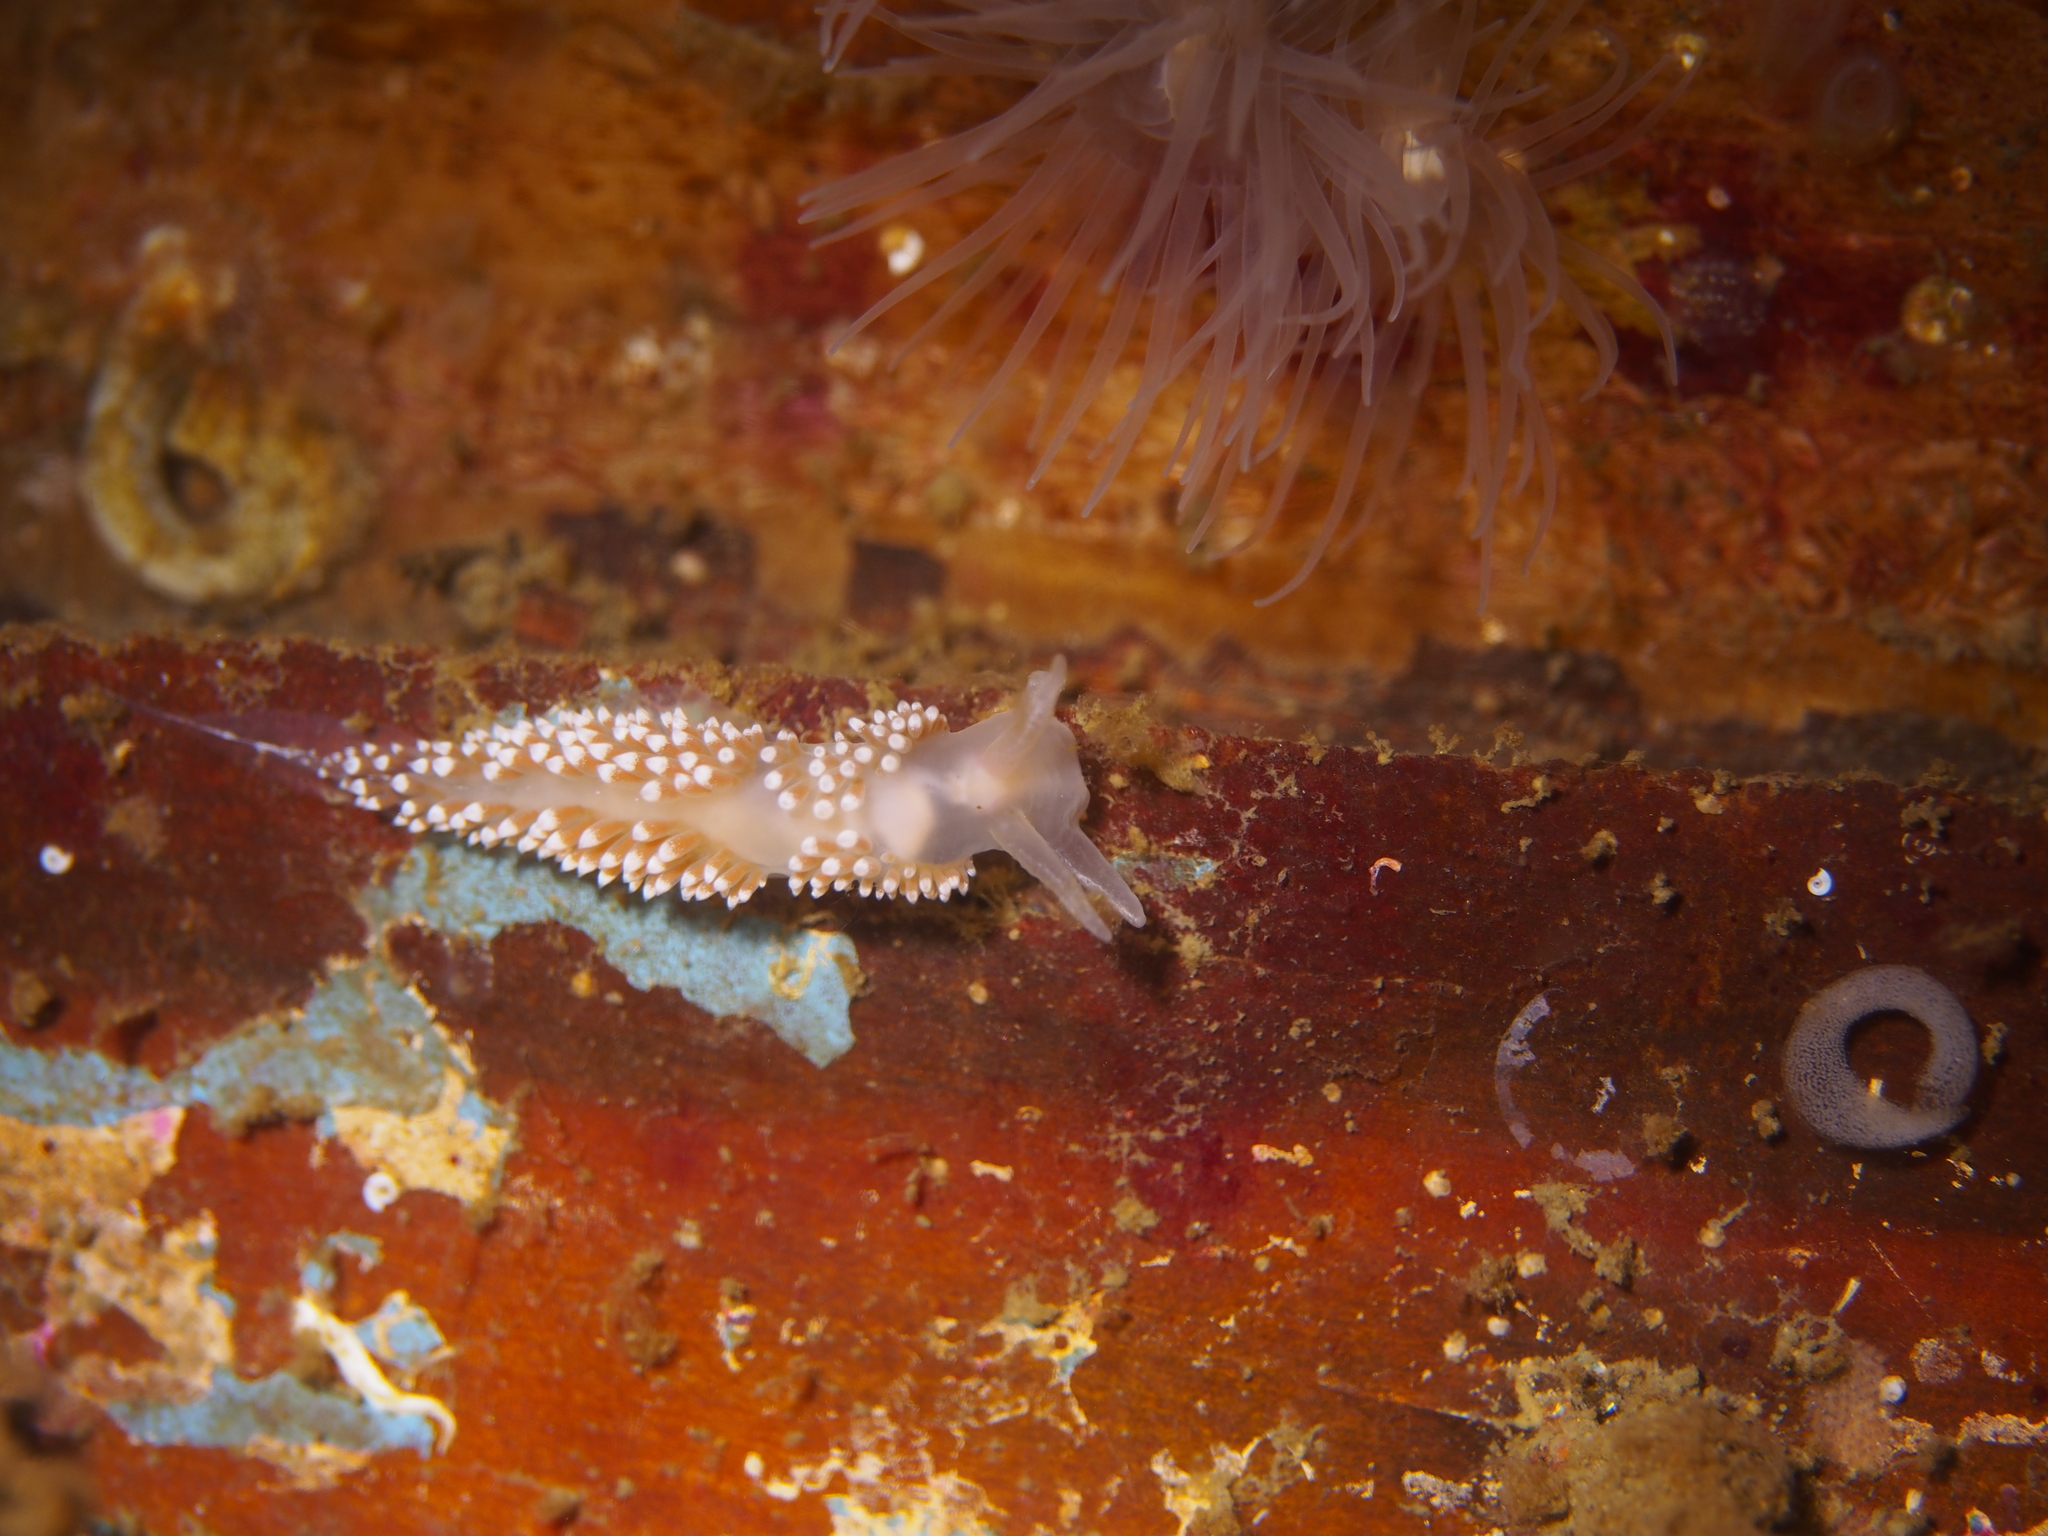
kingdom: Animalia
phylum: Mollusca
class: Gastropoda
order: Nudibranchia
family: Coryphellidae
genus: Coryphella
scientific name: Coryphella verrucosa
